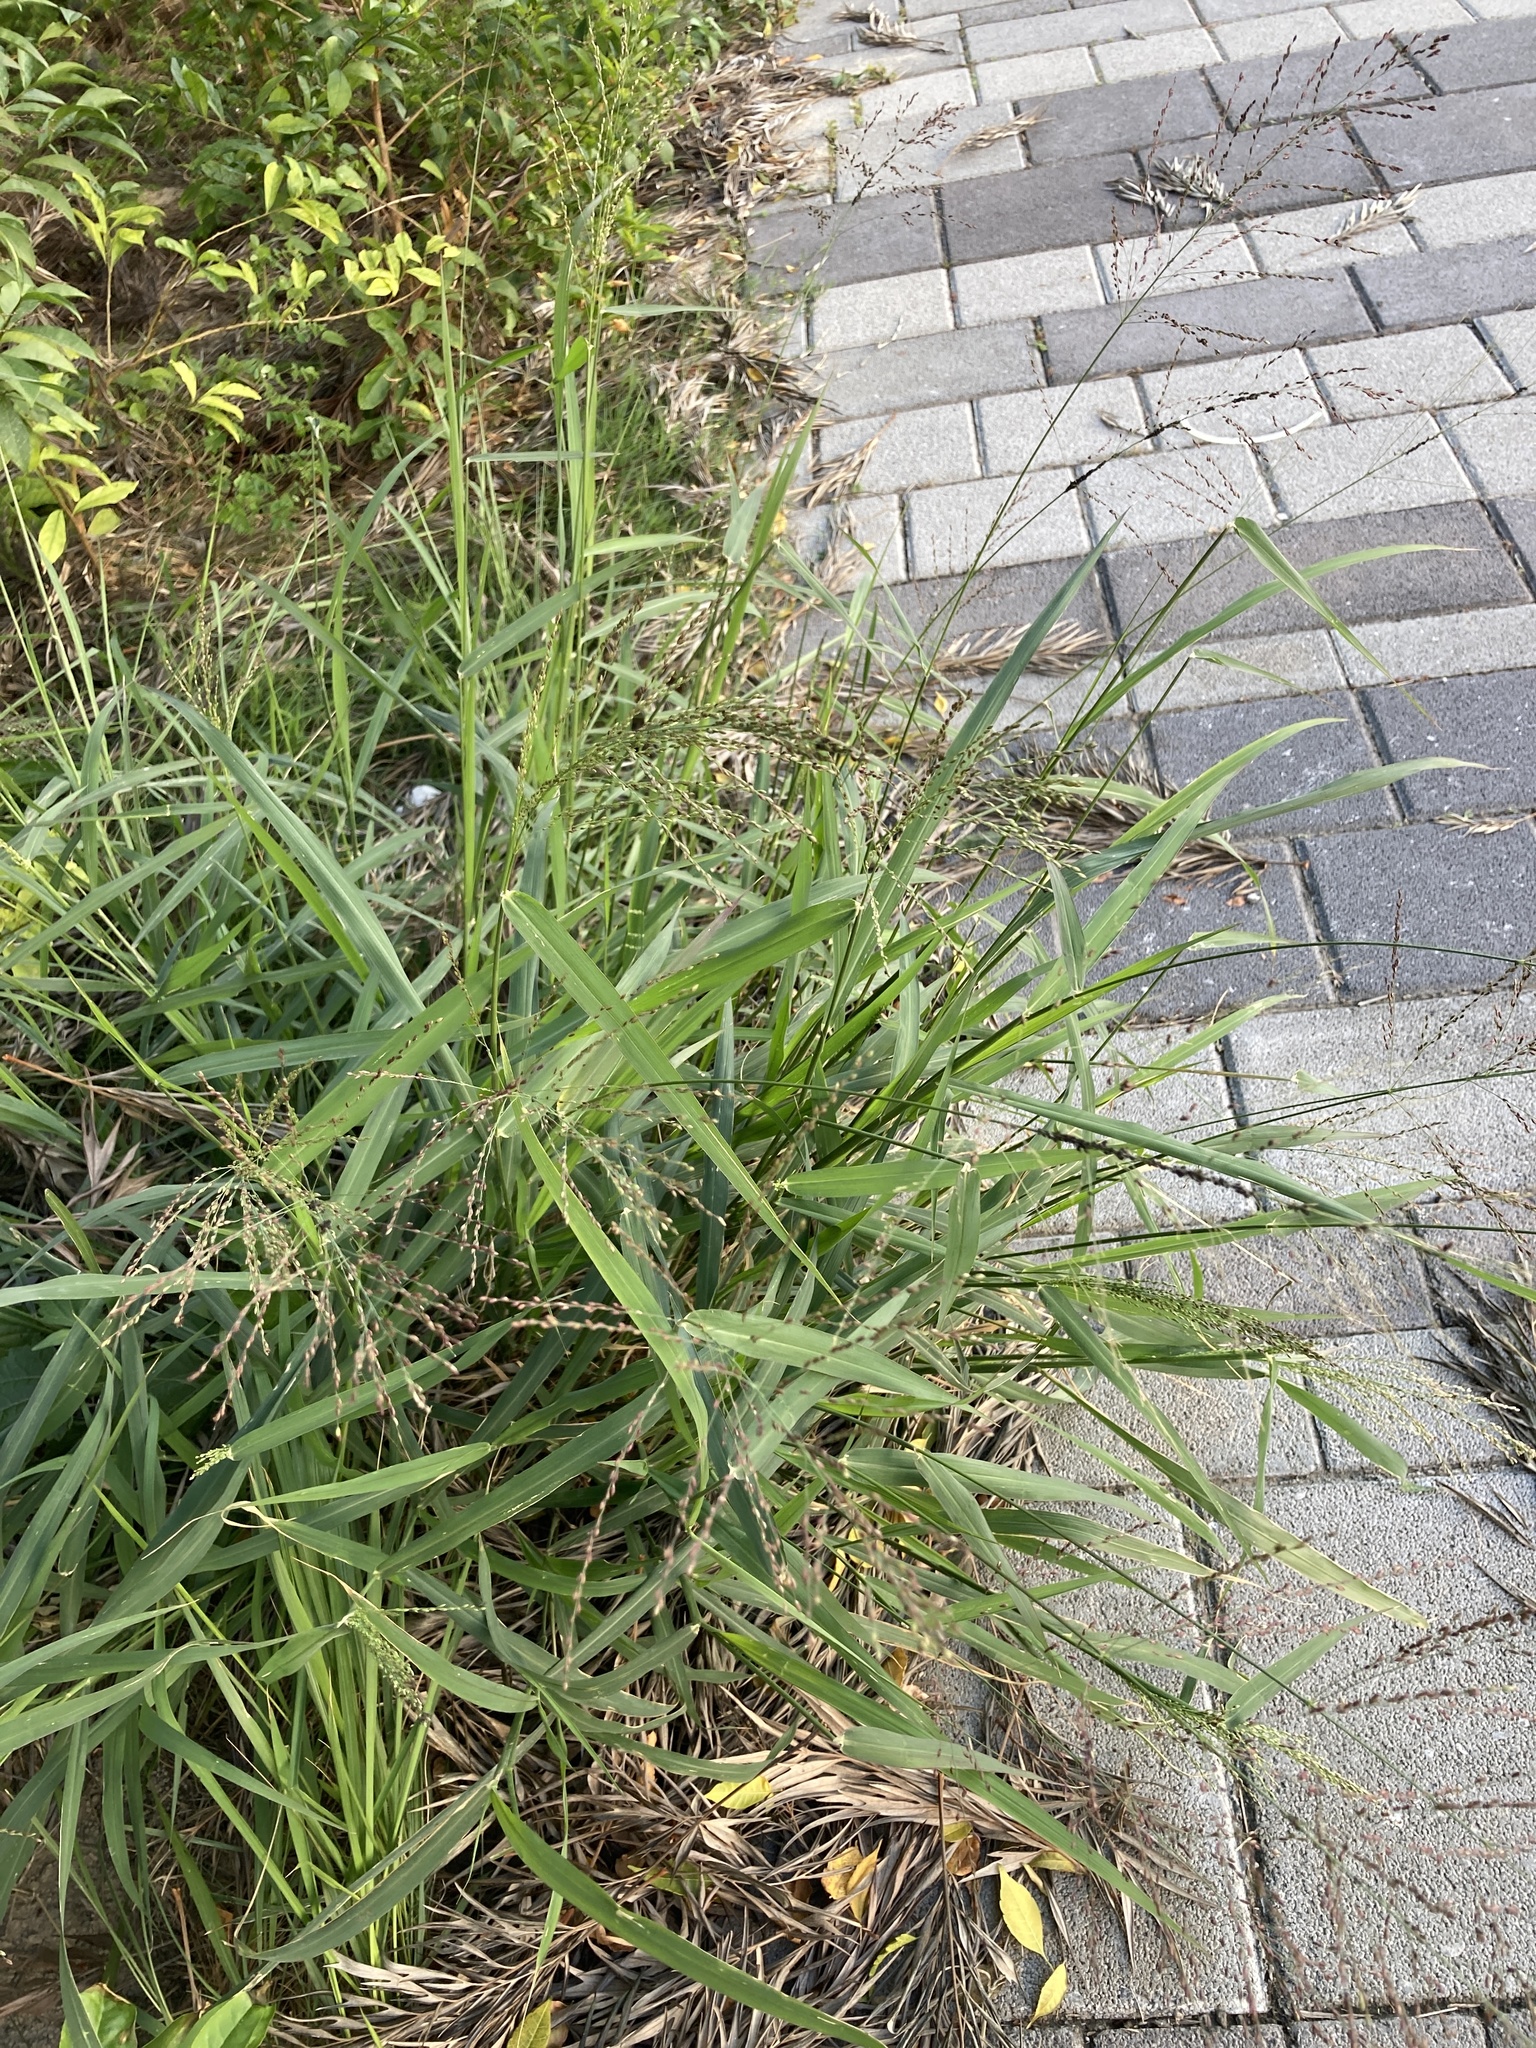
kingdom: Plantae
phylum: Tracheophyta
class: Liliopsida
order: Poales
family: Poaceae
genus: Megathyrsus
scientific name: Megathyrsus maximus
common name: Guineagrass
